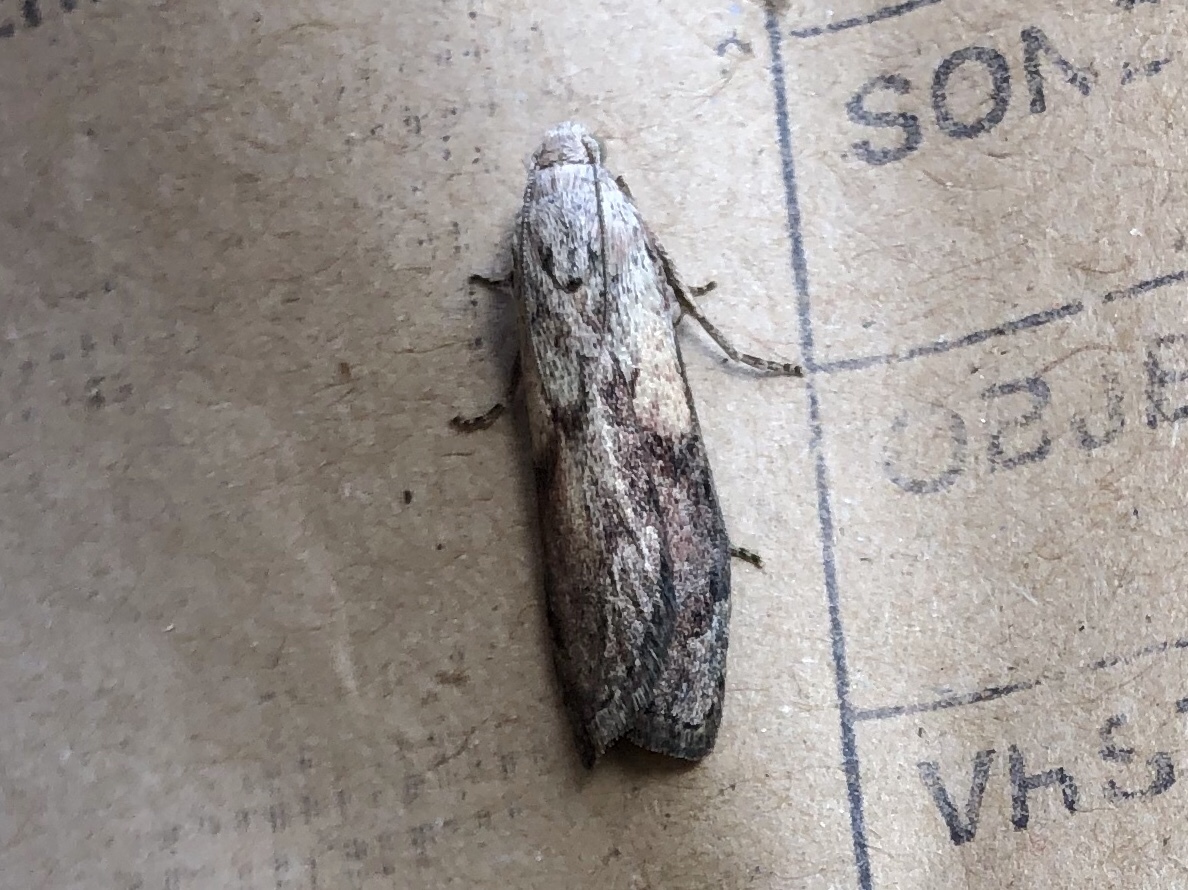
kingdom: Animalia
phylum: Arthropoda
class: Insecta
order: Lepidoptera
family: Pyralidae
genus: Aphomia
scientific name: Aphomia sociella
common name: Bee moth
